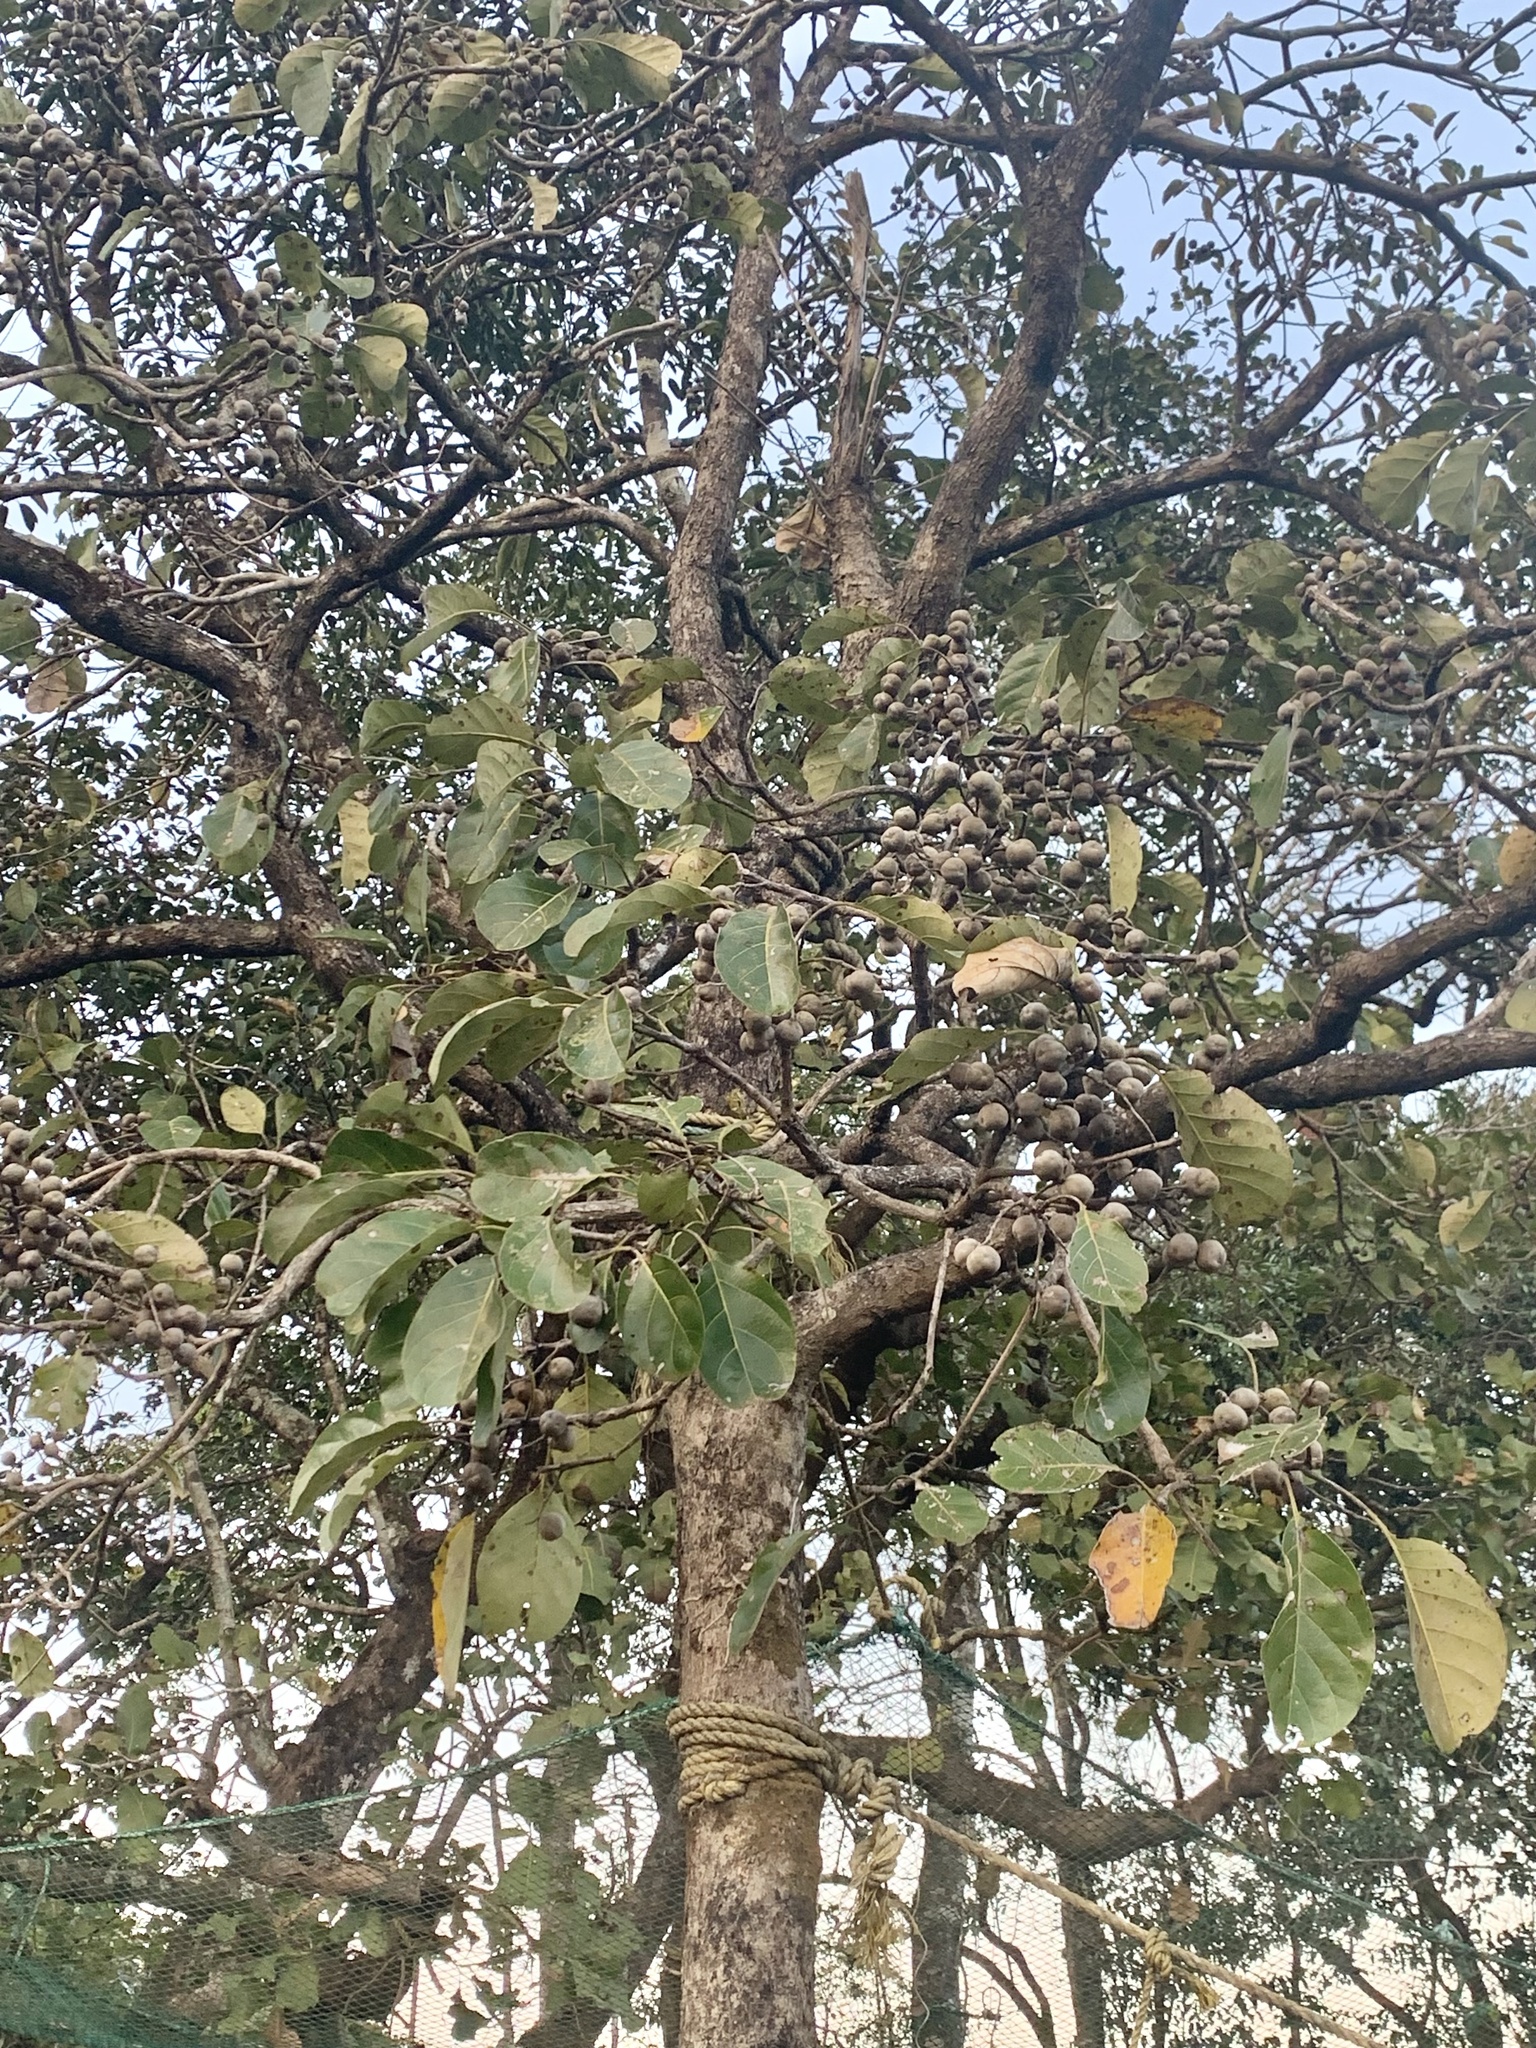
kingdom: Plantae
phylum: Tracheophyta
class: Magnoliopsida
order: Myrtales
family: Combretaceae
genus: Terminalia
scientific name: Terminalia bellirica
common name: Beleric myrobalan
